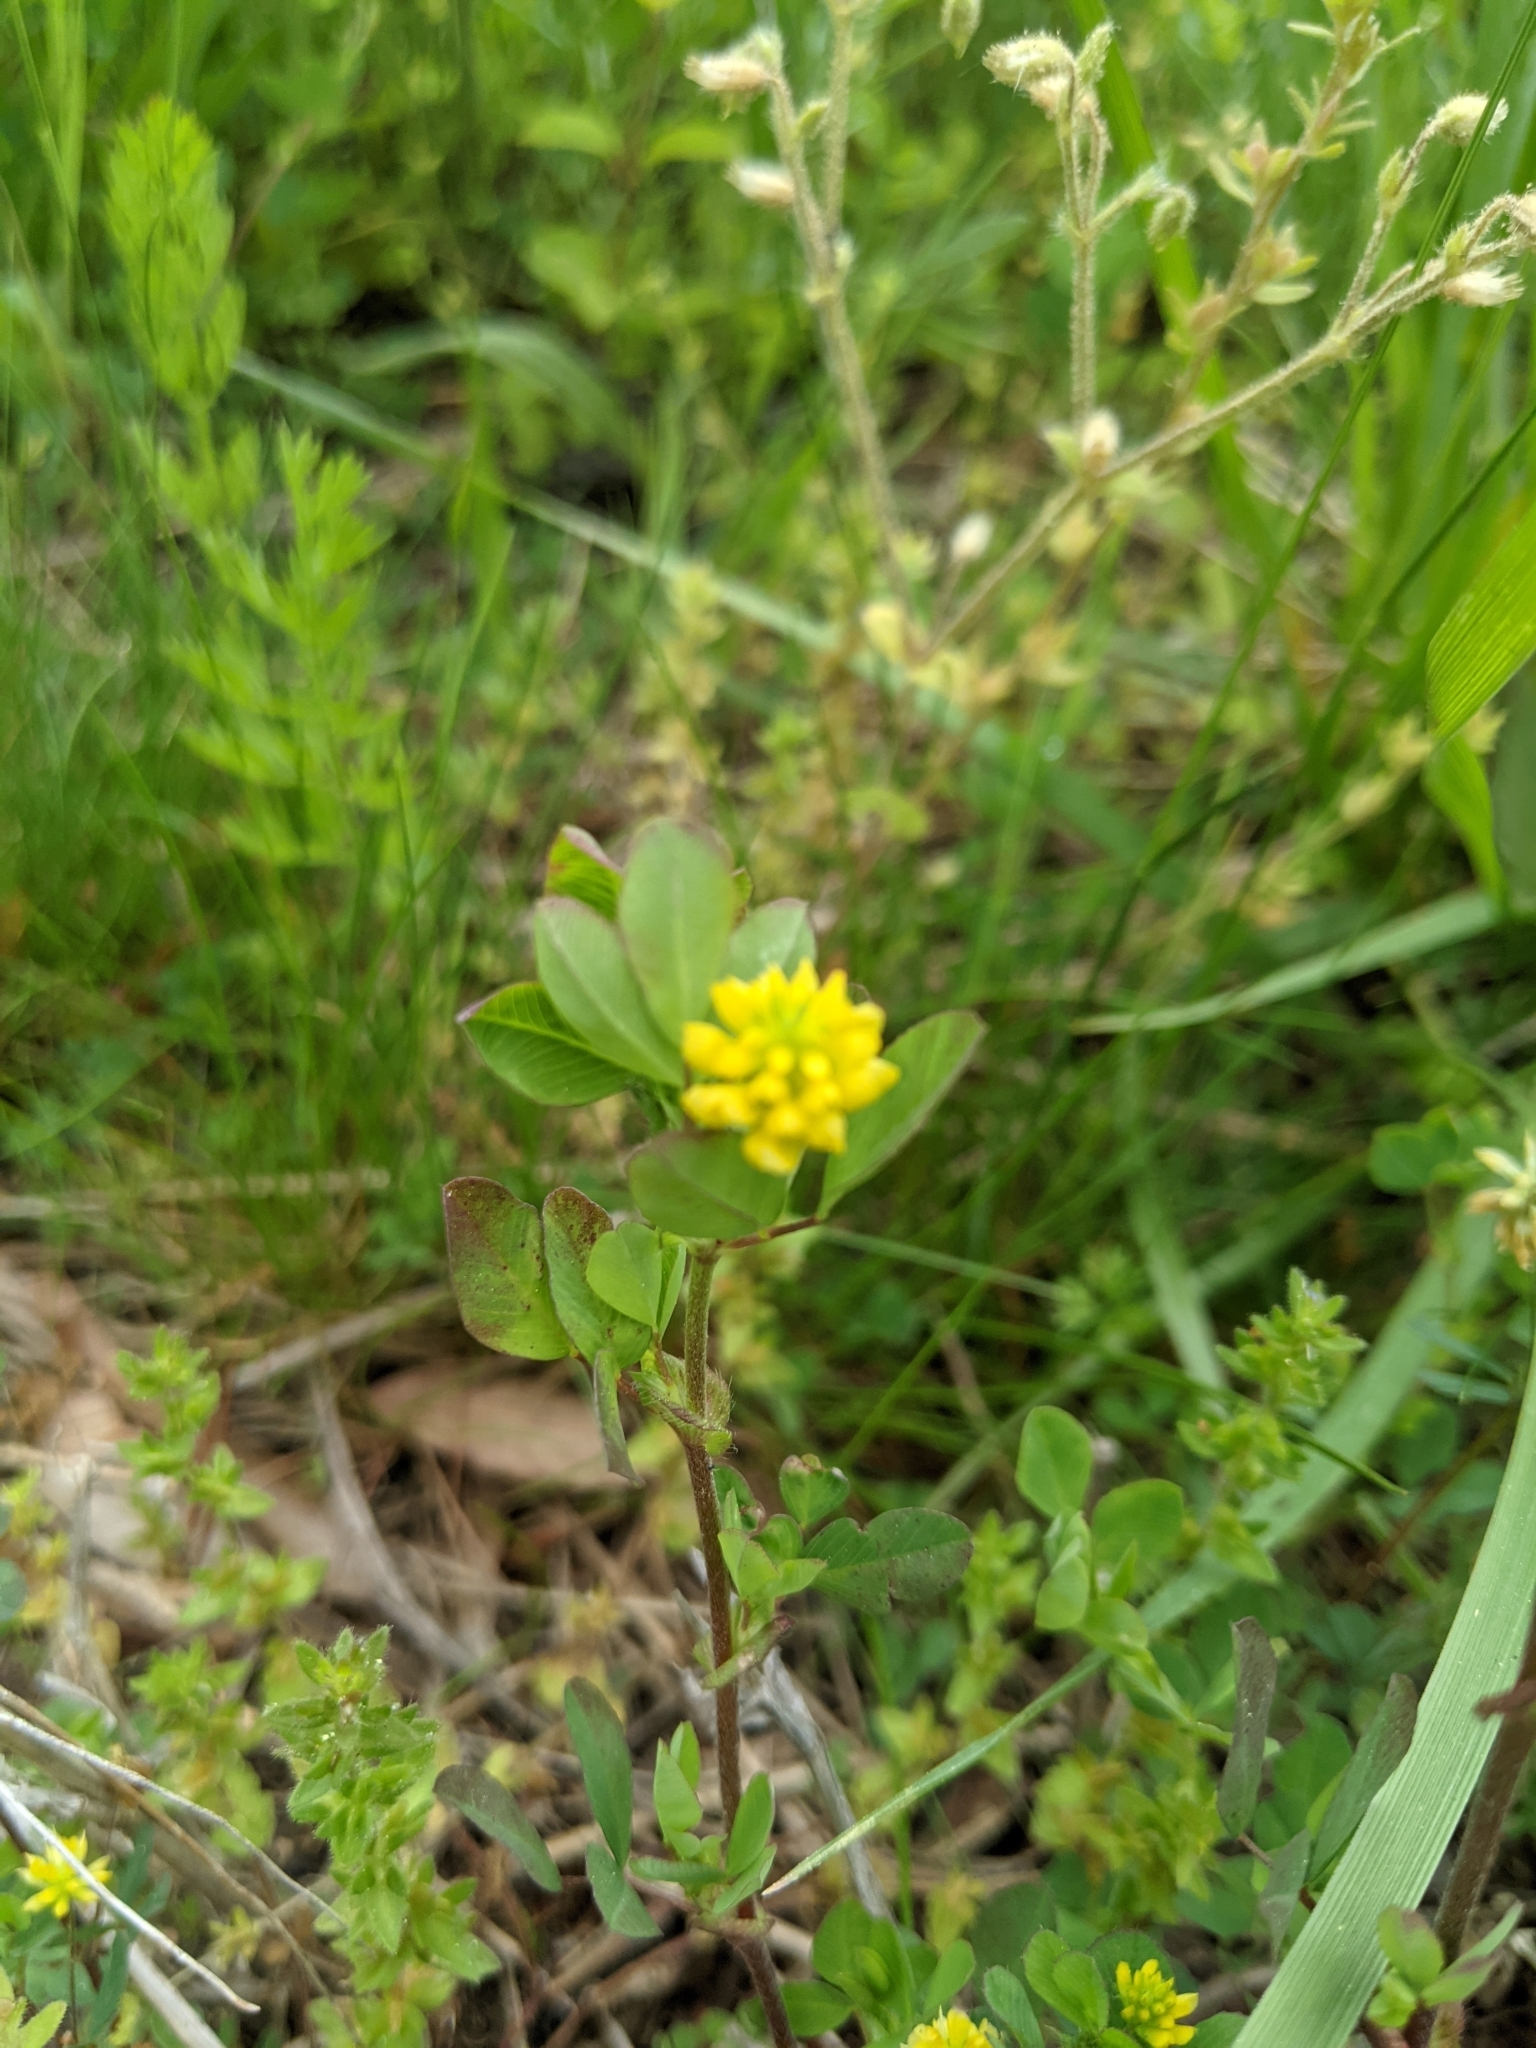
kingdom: Plantae
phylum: Tracheophyta
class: Magnoliopsida
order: Fabales
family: Fabaceae
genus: Trifolium
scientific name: Trifolium campestre
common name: Field clover
